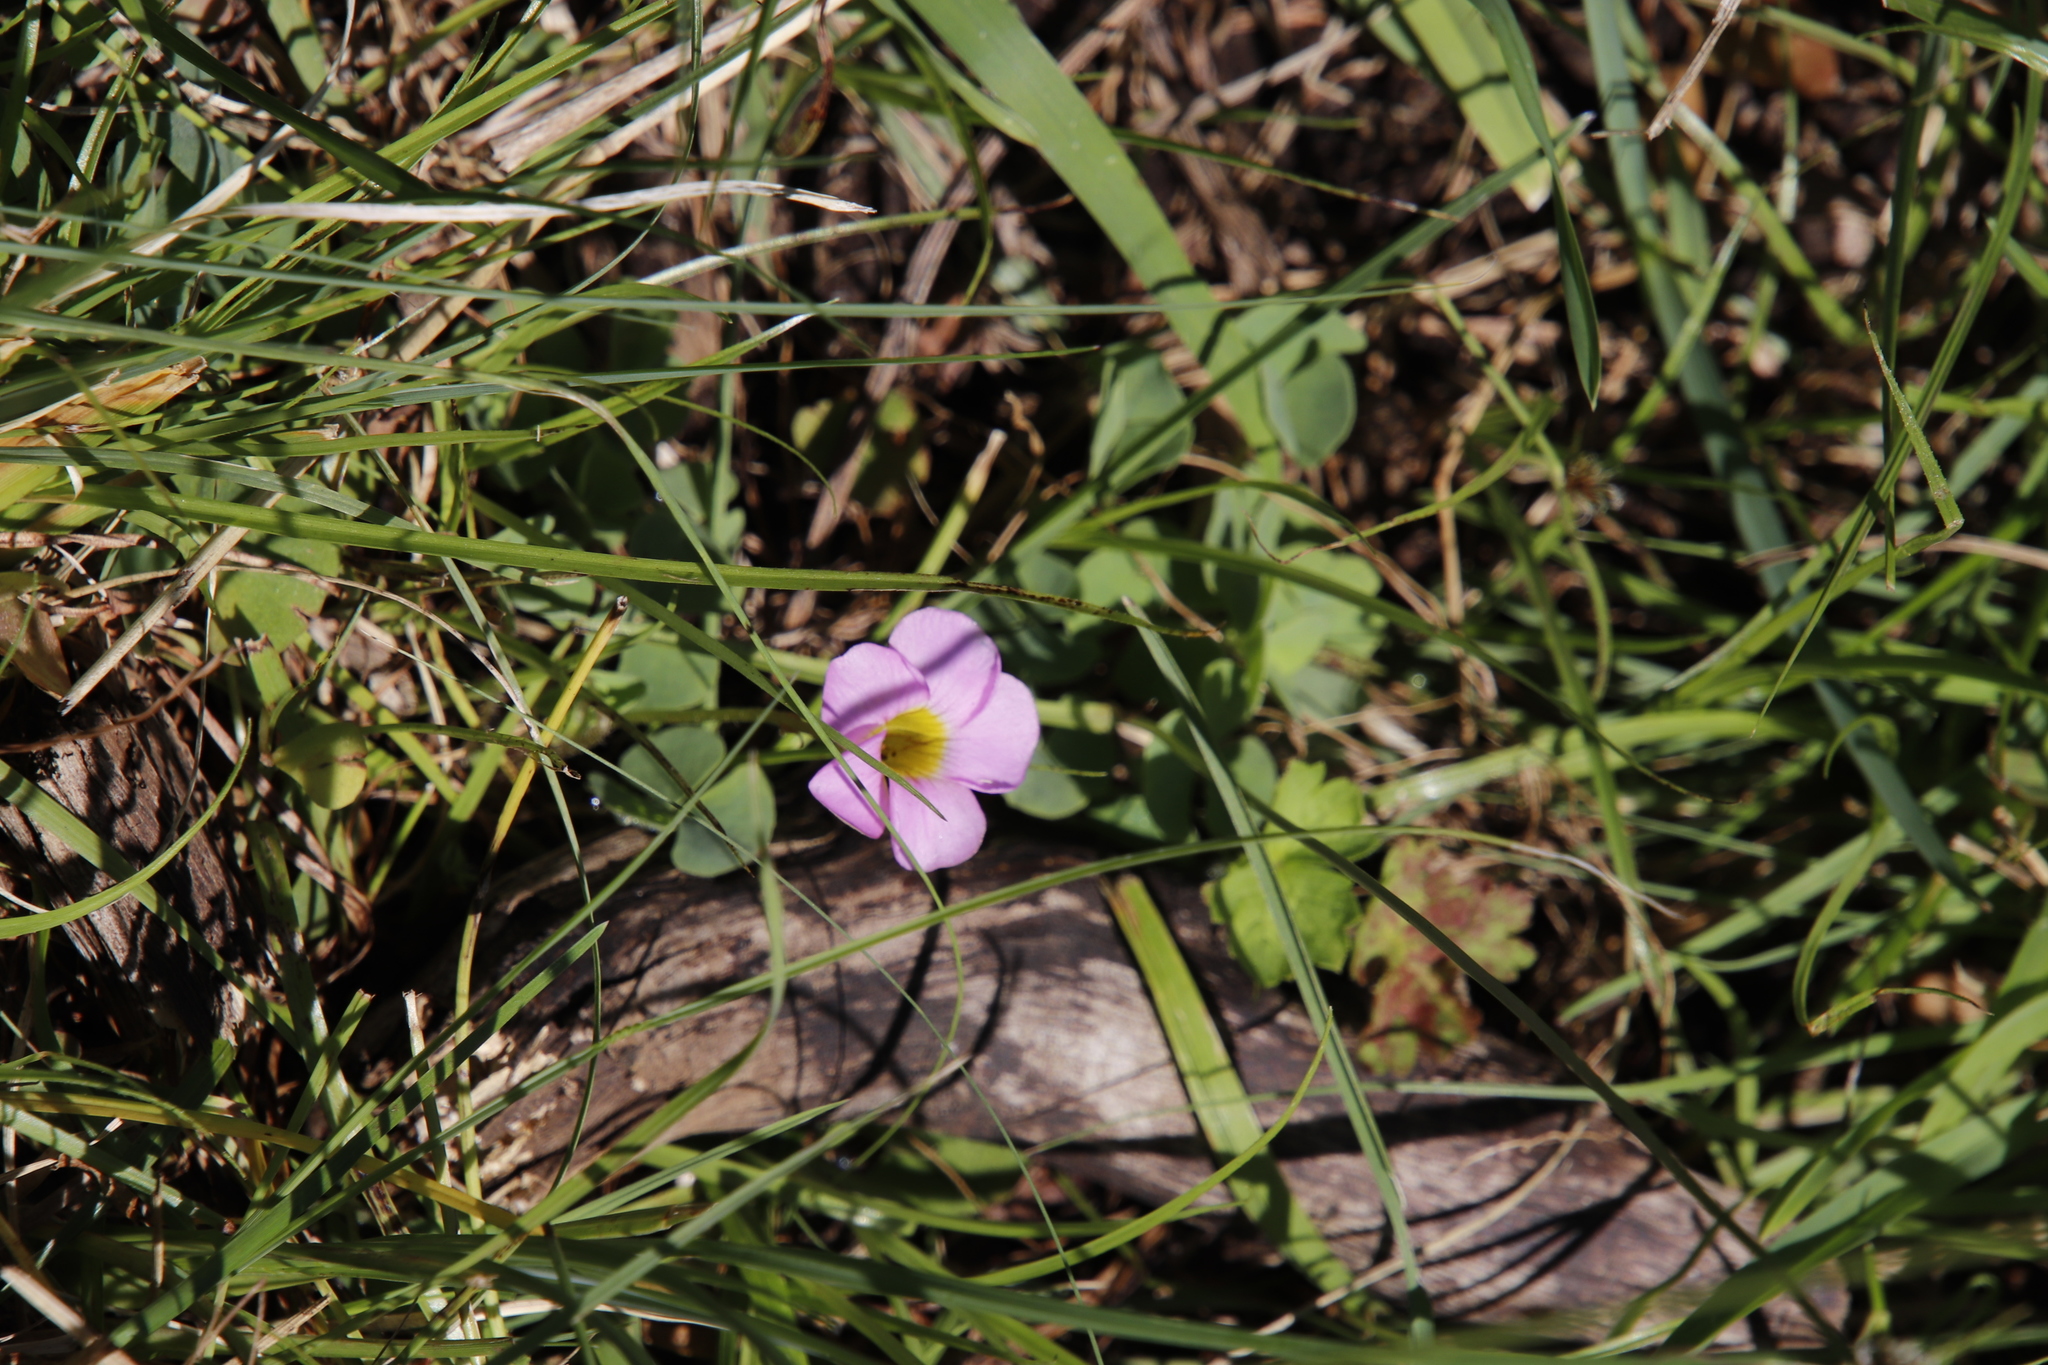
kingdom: Plantae
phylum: Tracheophyta
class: Magnoliopsida
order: Oxalidales
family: Oxalidaceae
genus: Oxalis
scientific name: Oxalis obliquifolia
